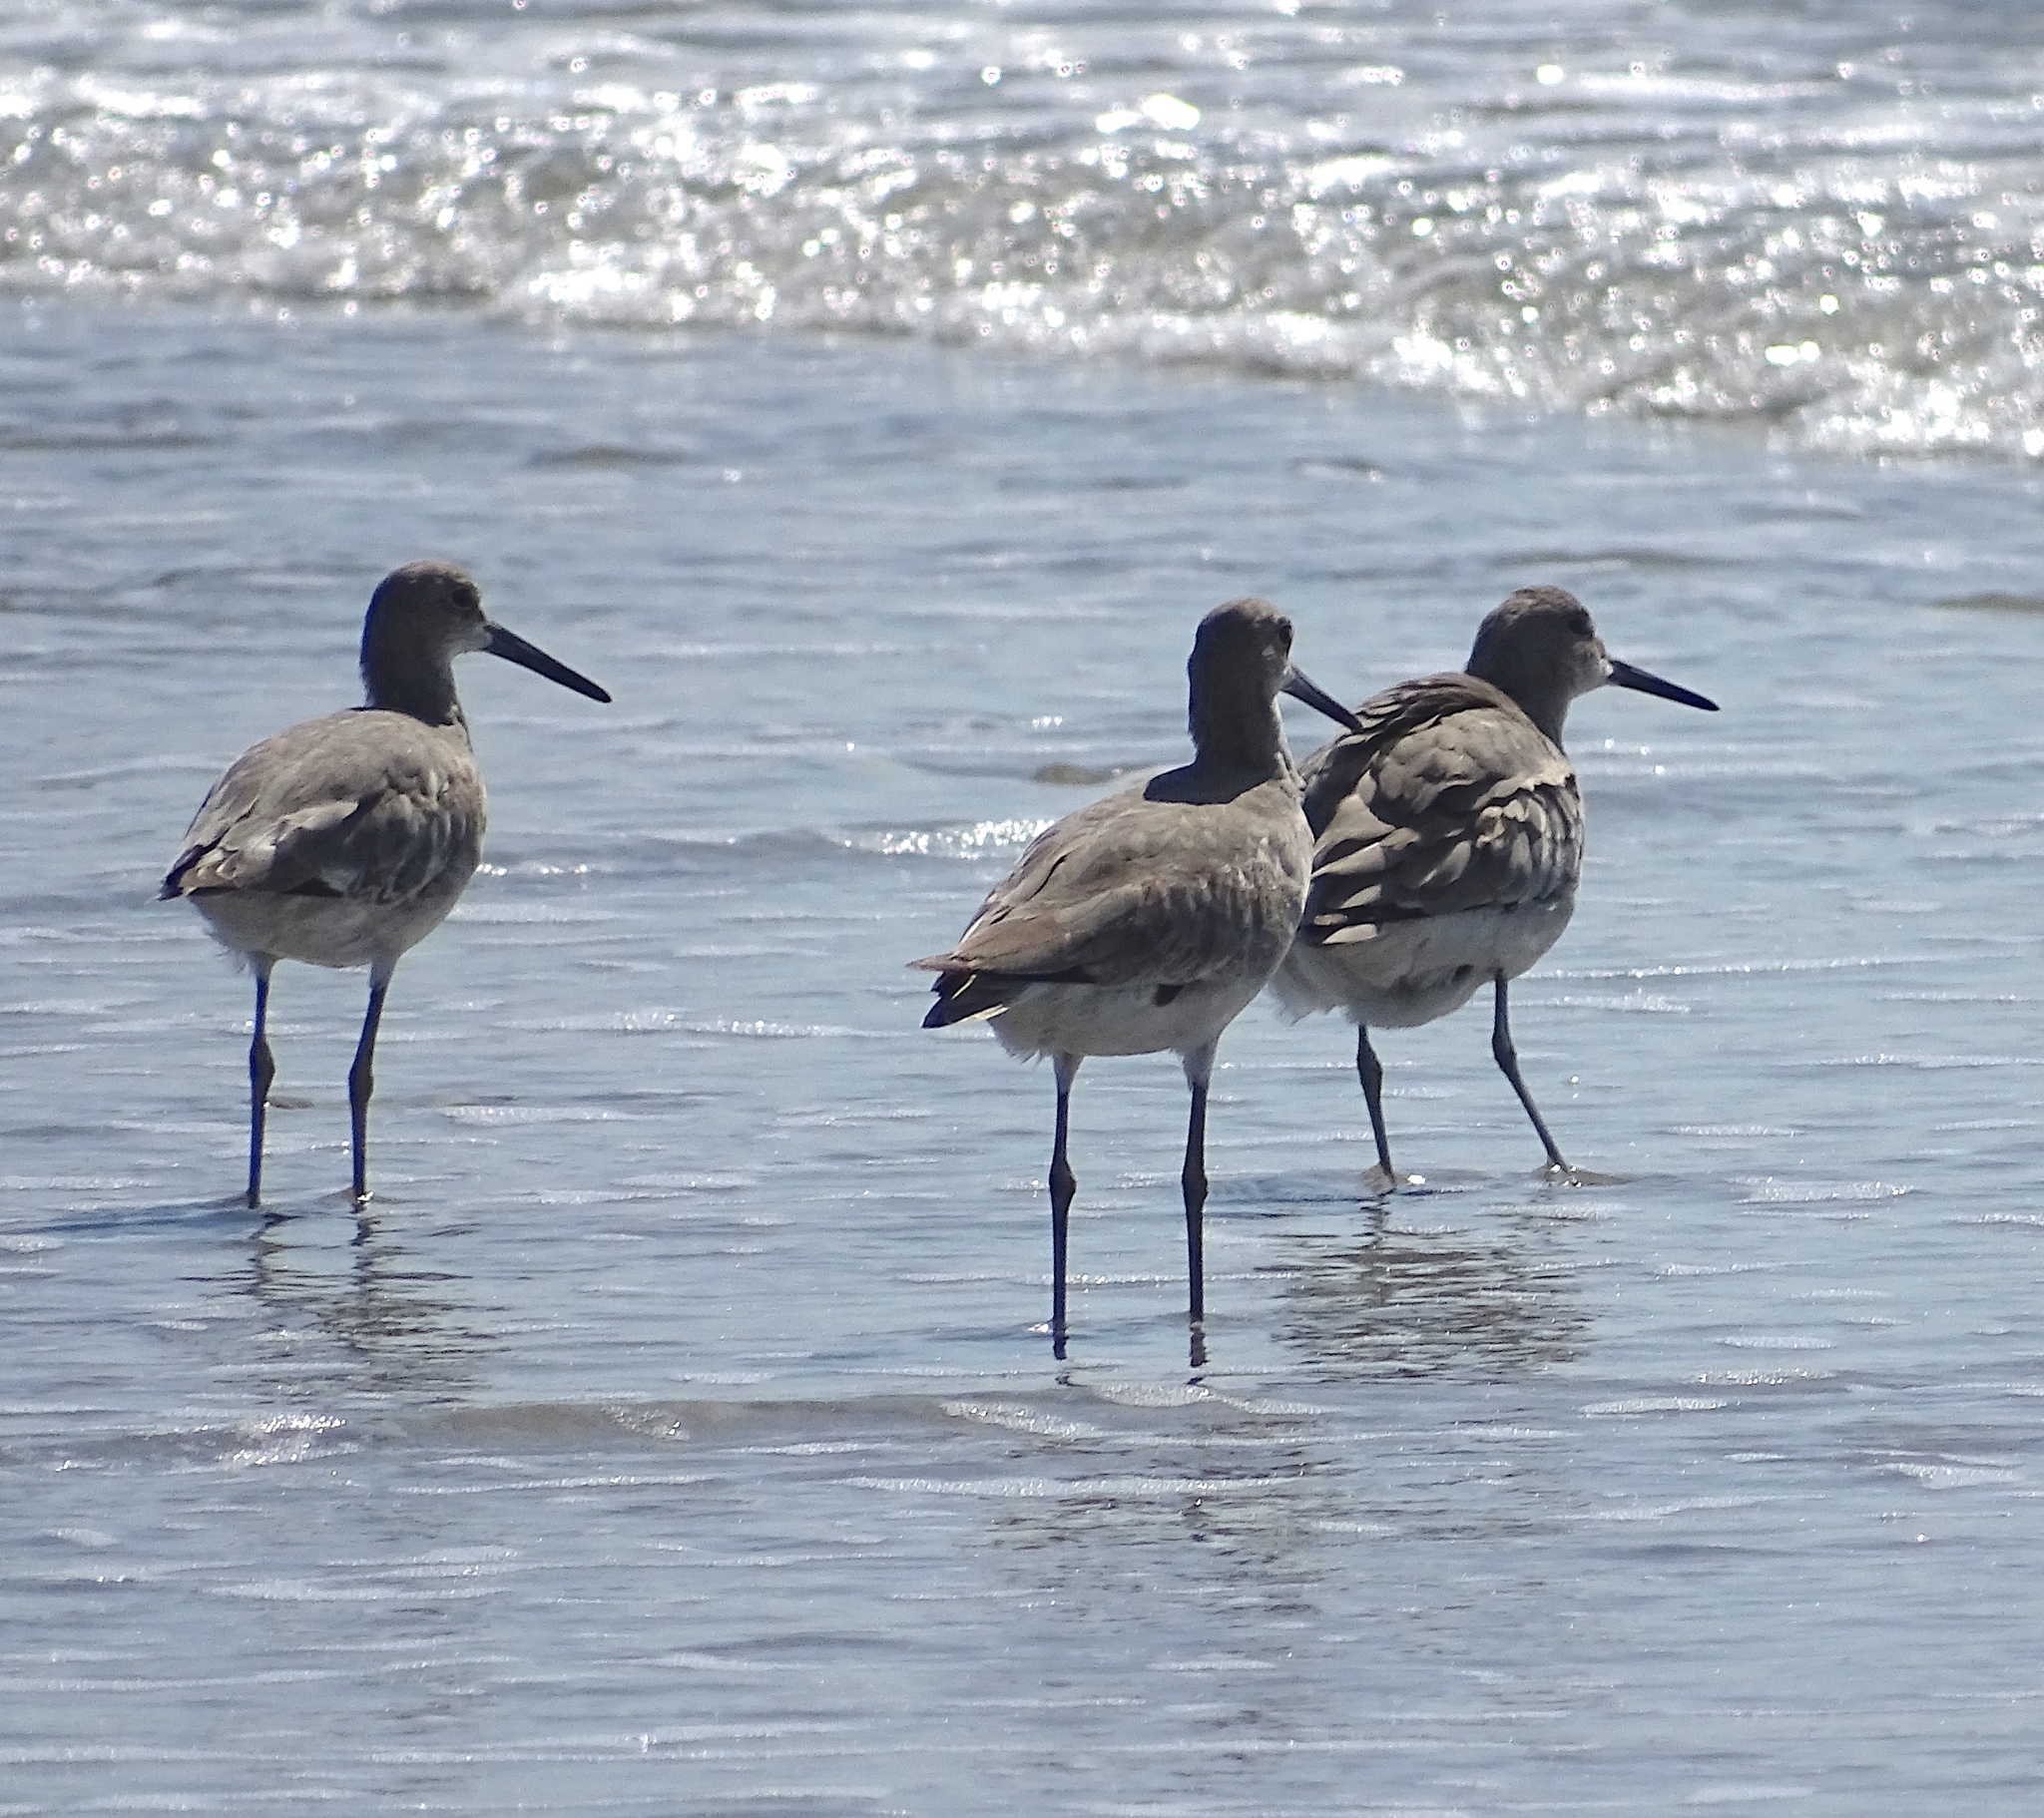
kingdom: Animalia
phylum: Chordata
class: Aves
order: Charadriiformes
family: Scolopacidae
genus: Tringa
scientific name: Tringa semipalmata
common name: Willet
